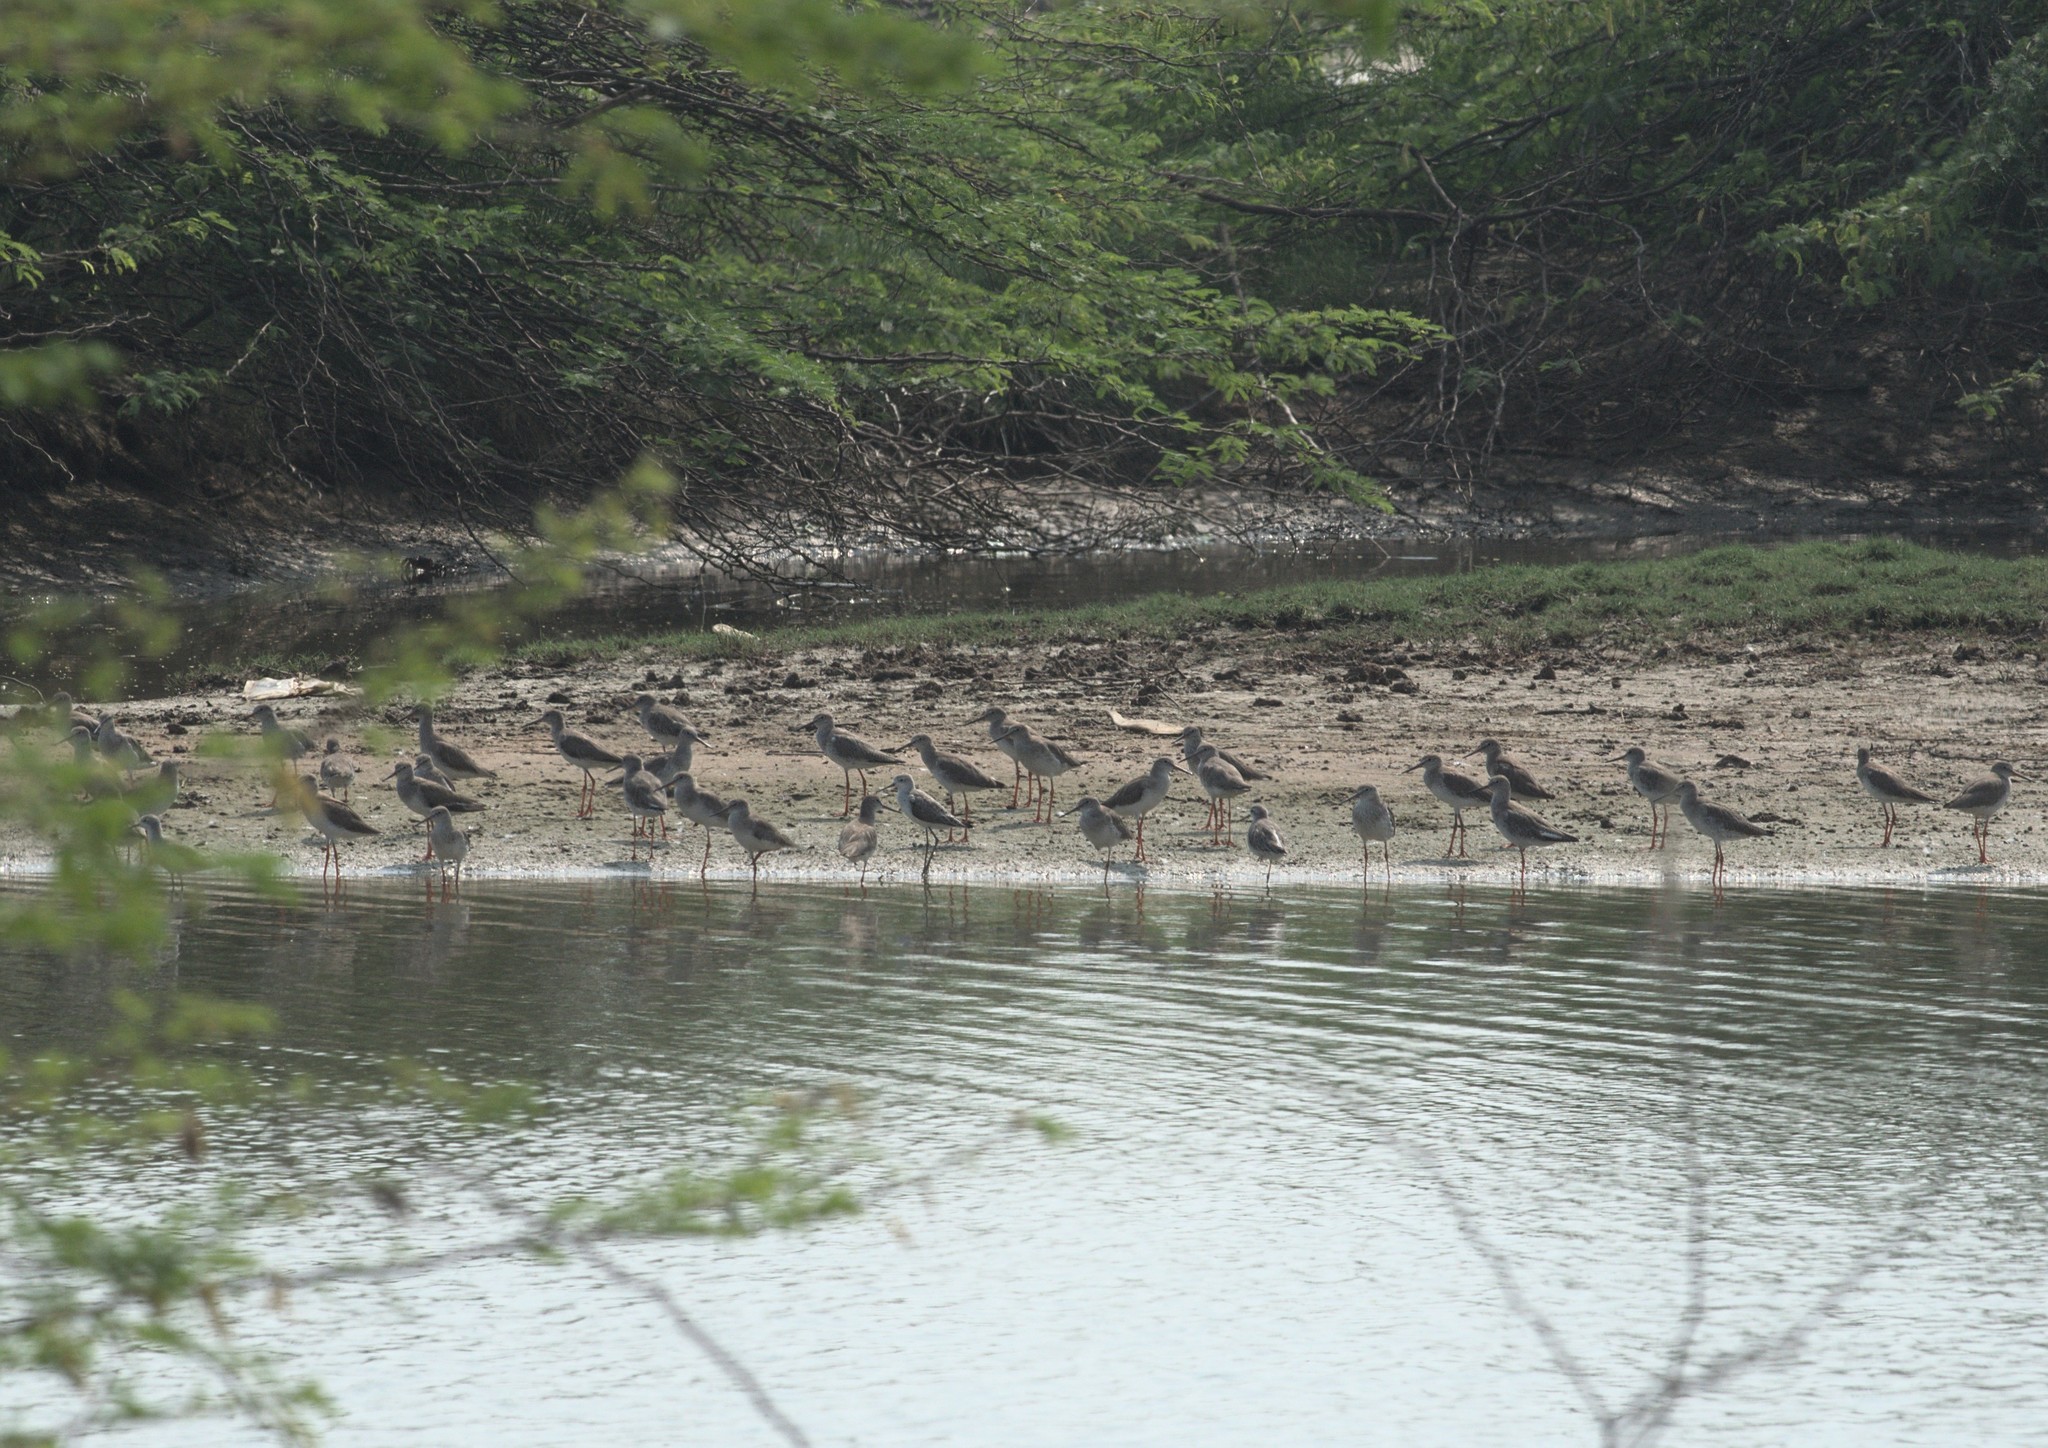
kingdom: Animalia
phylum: Chordata
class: Aves
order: Charadriiformes
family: Scolopacidae
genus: Tringa
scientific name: Tringa totanus
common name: Common redshank
